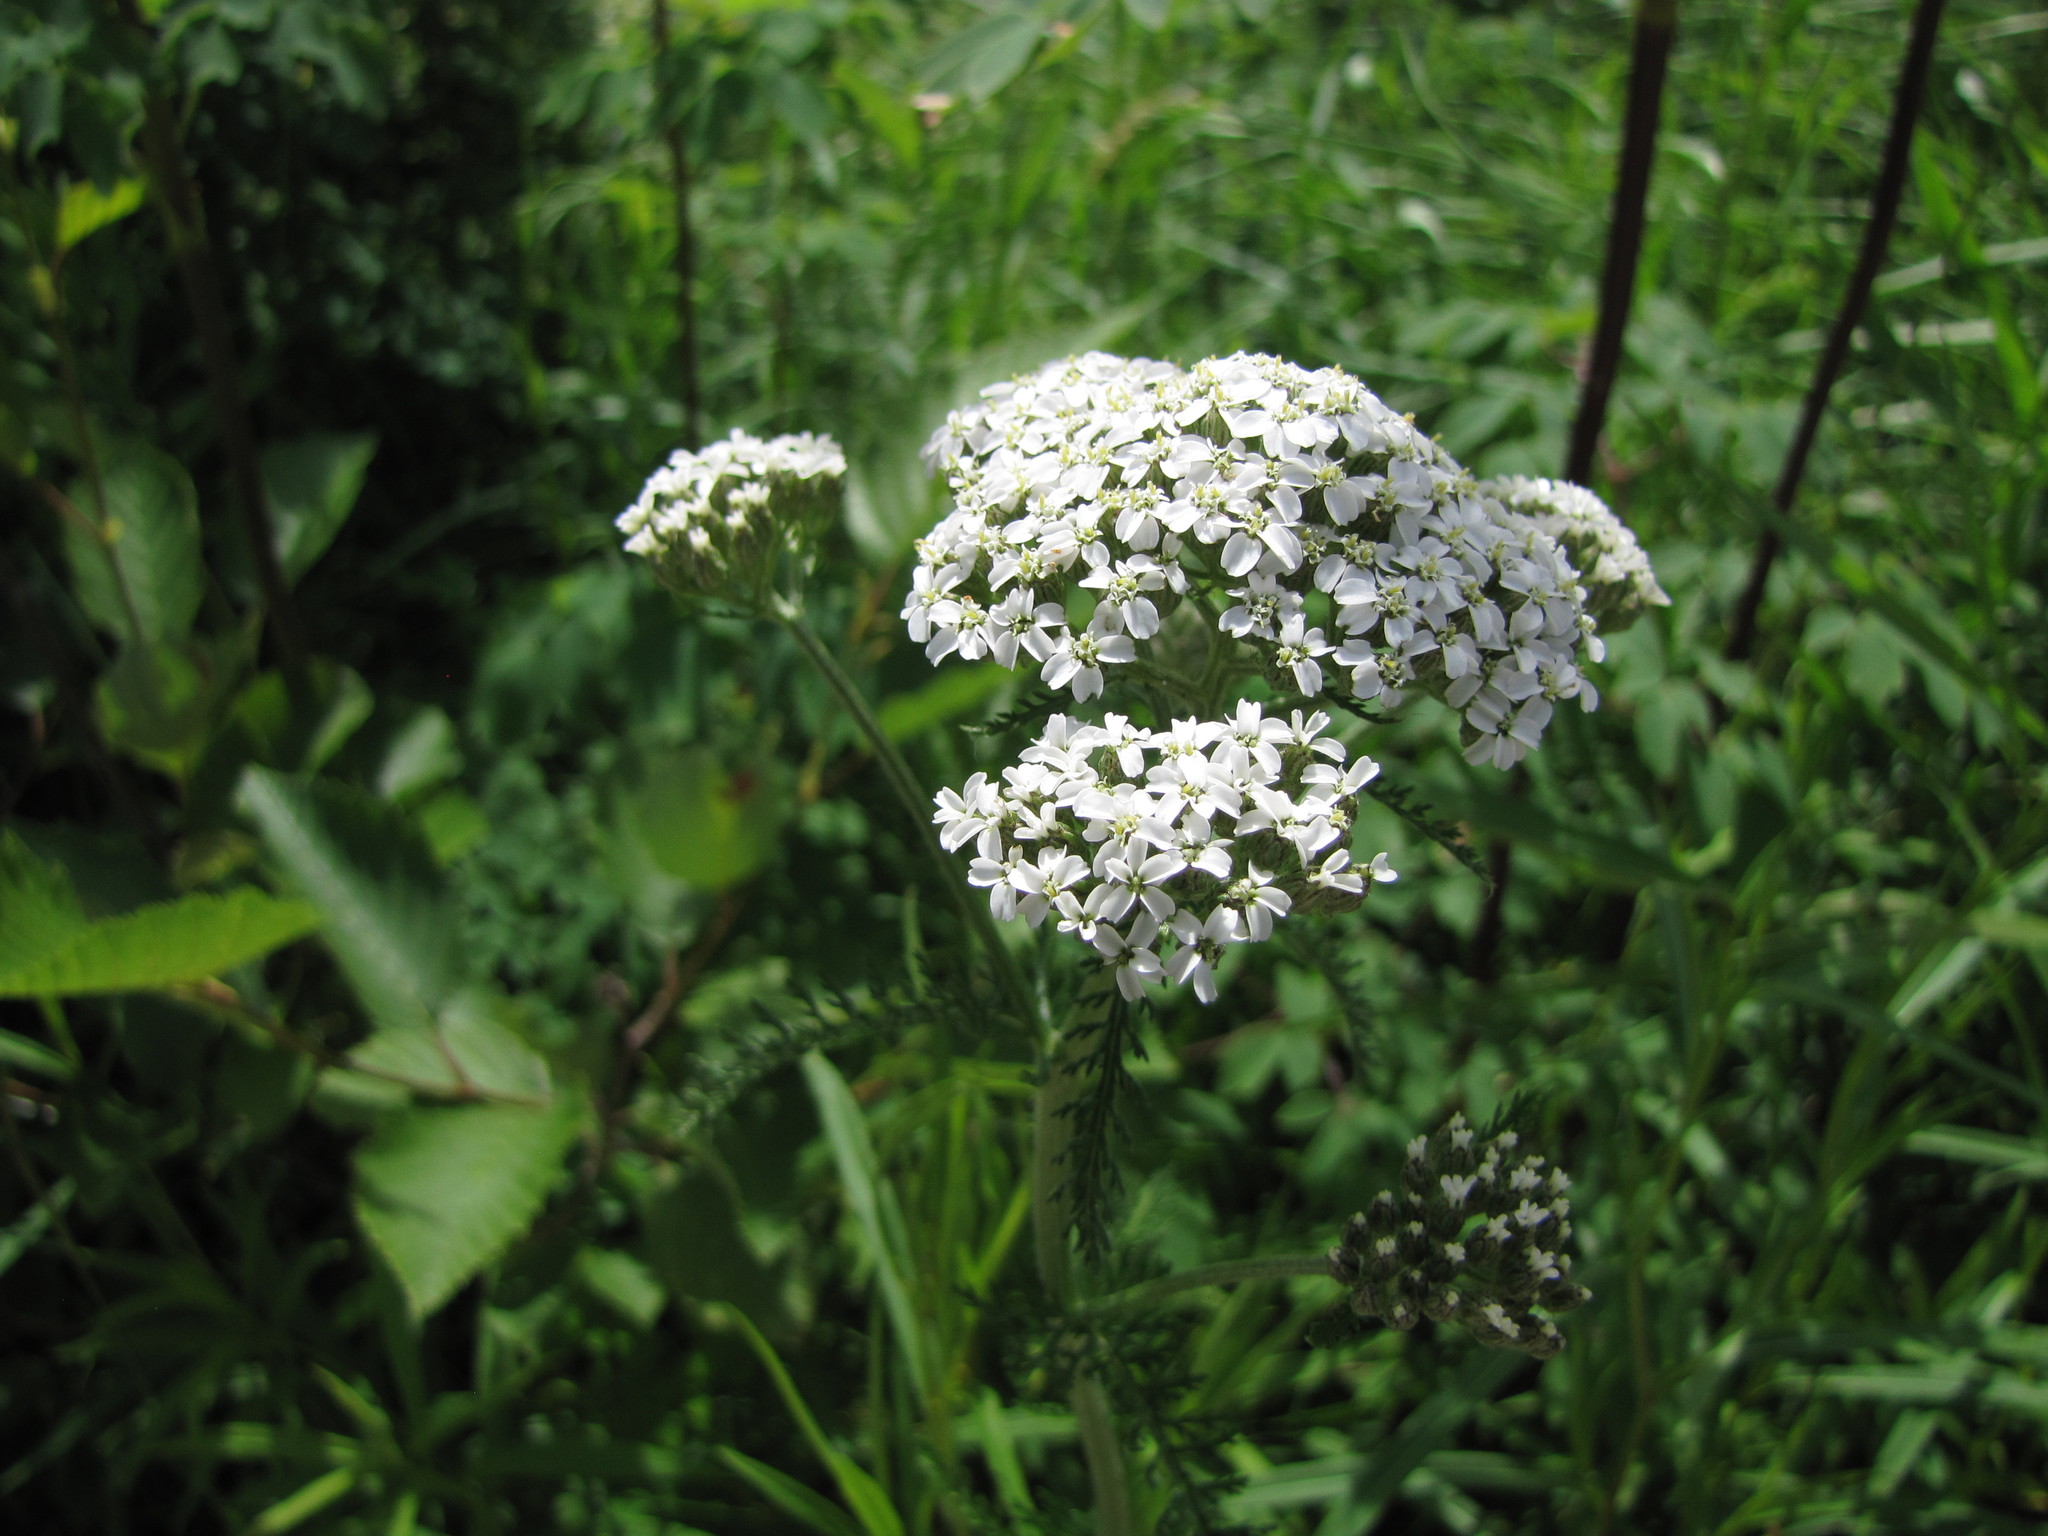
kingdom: Plantae
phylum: Tracheophyta
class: Magnoliopsida
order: Asterales
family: Asteraceae
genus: Achillea
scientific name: Achillea millefolium
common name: Yarrow
